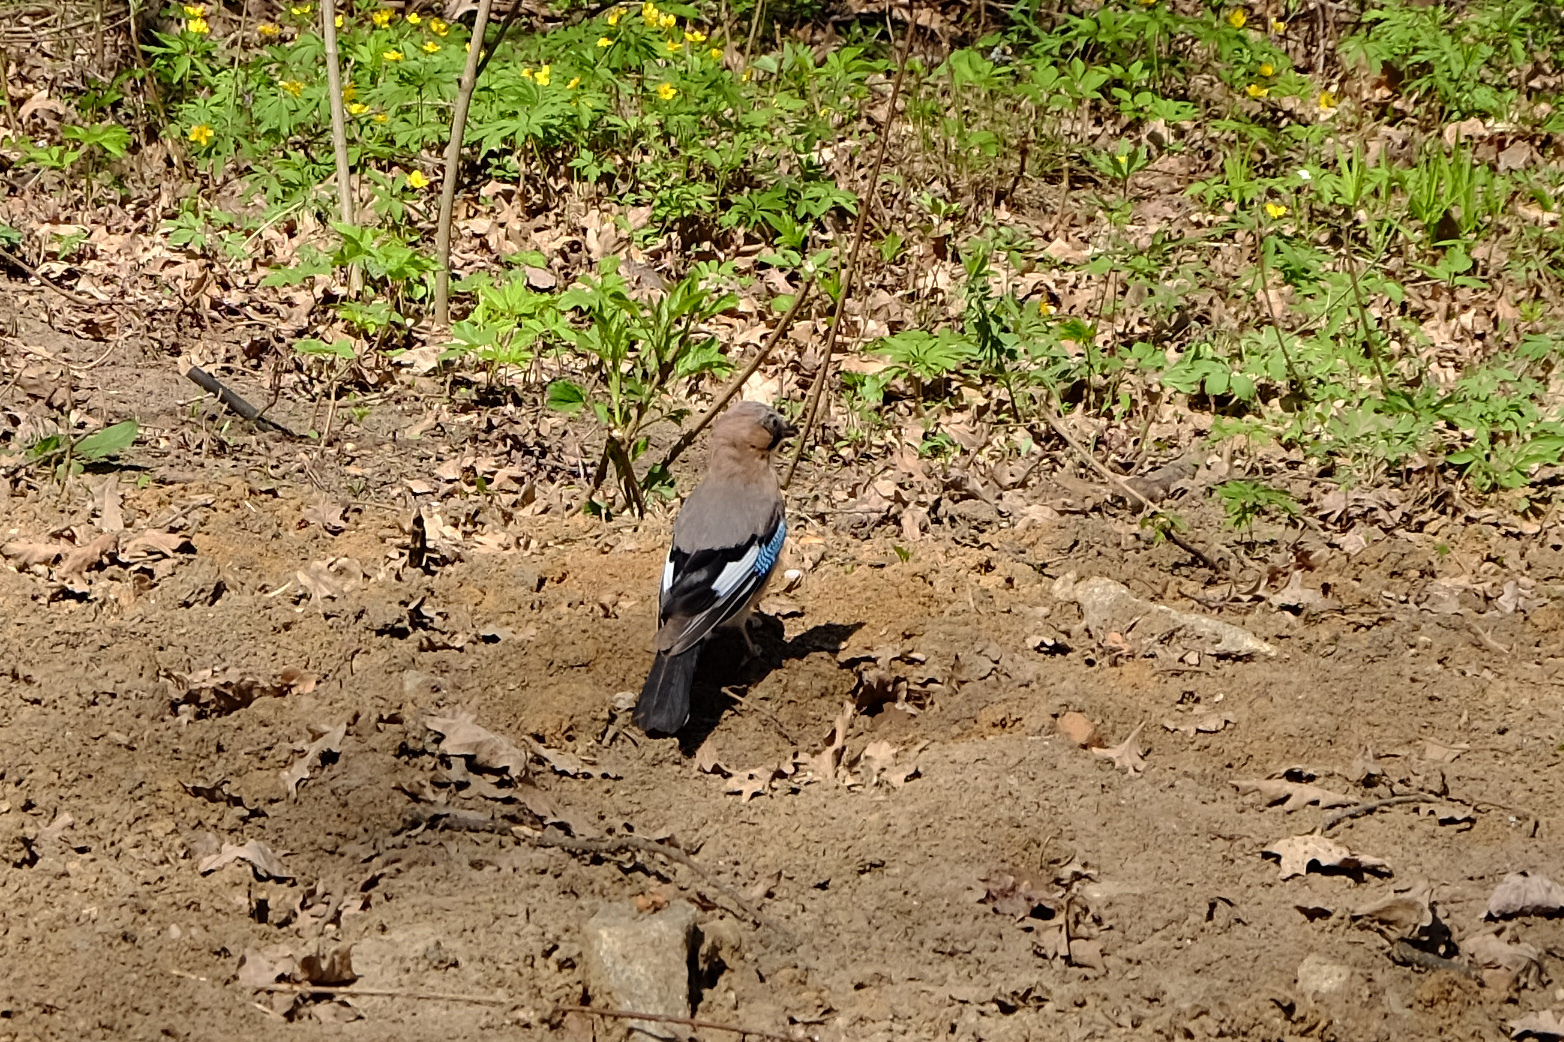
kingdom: Animalia
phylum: Chordata
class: Aves
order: Passeriformes
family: Corvidae
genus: Garrulus
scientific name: Garrulus glandarius
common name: Eurasian jay
